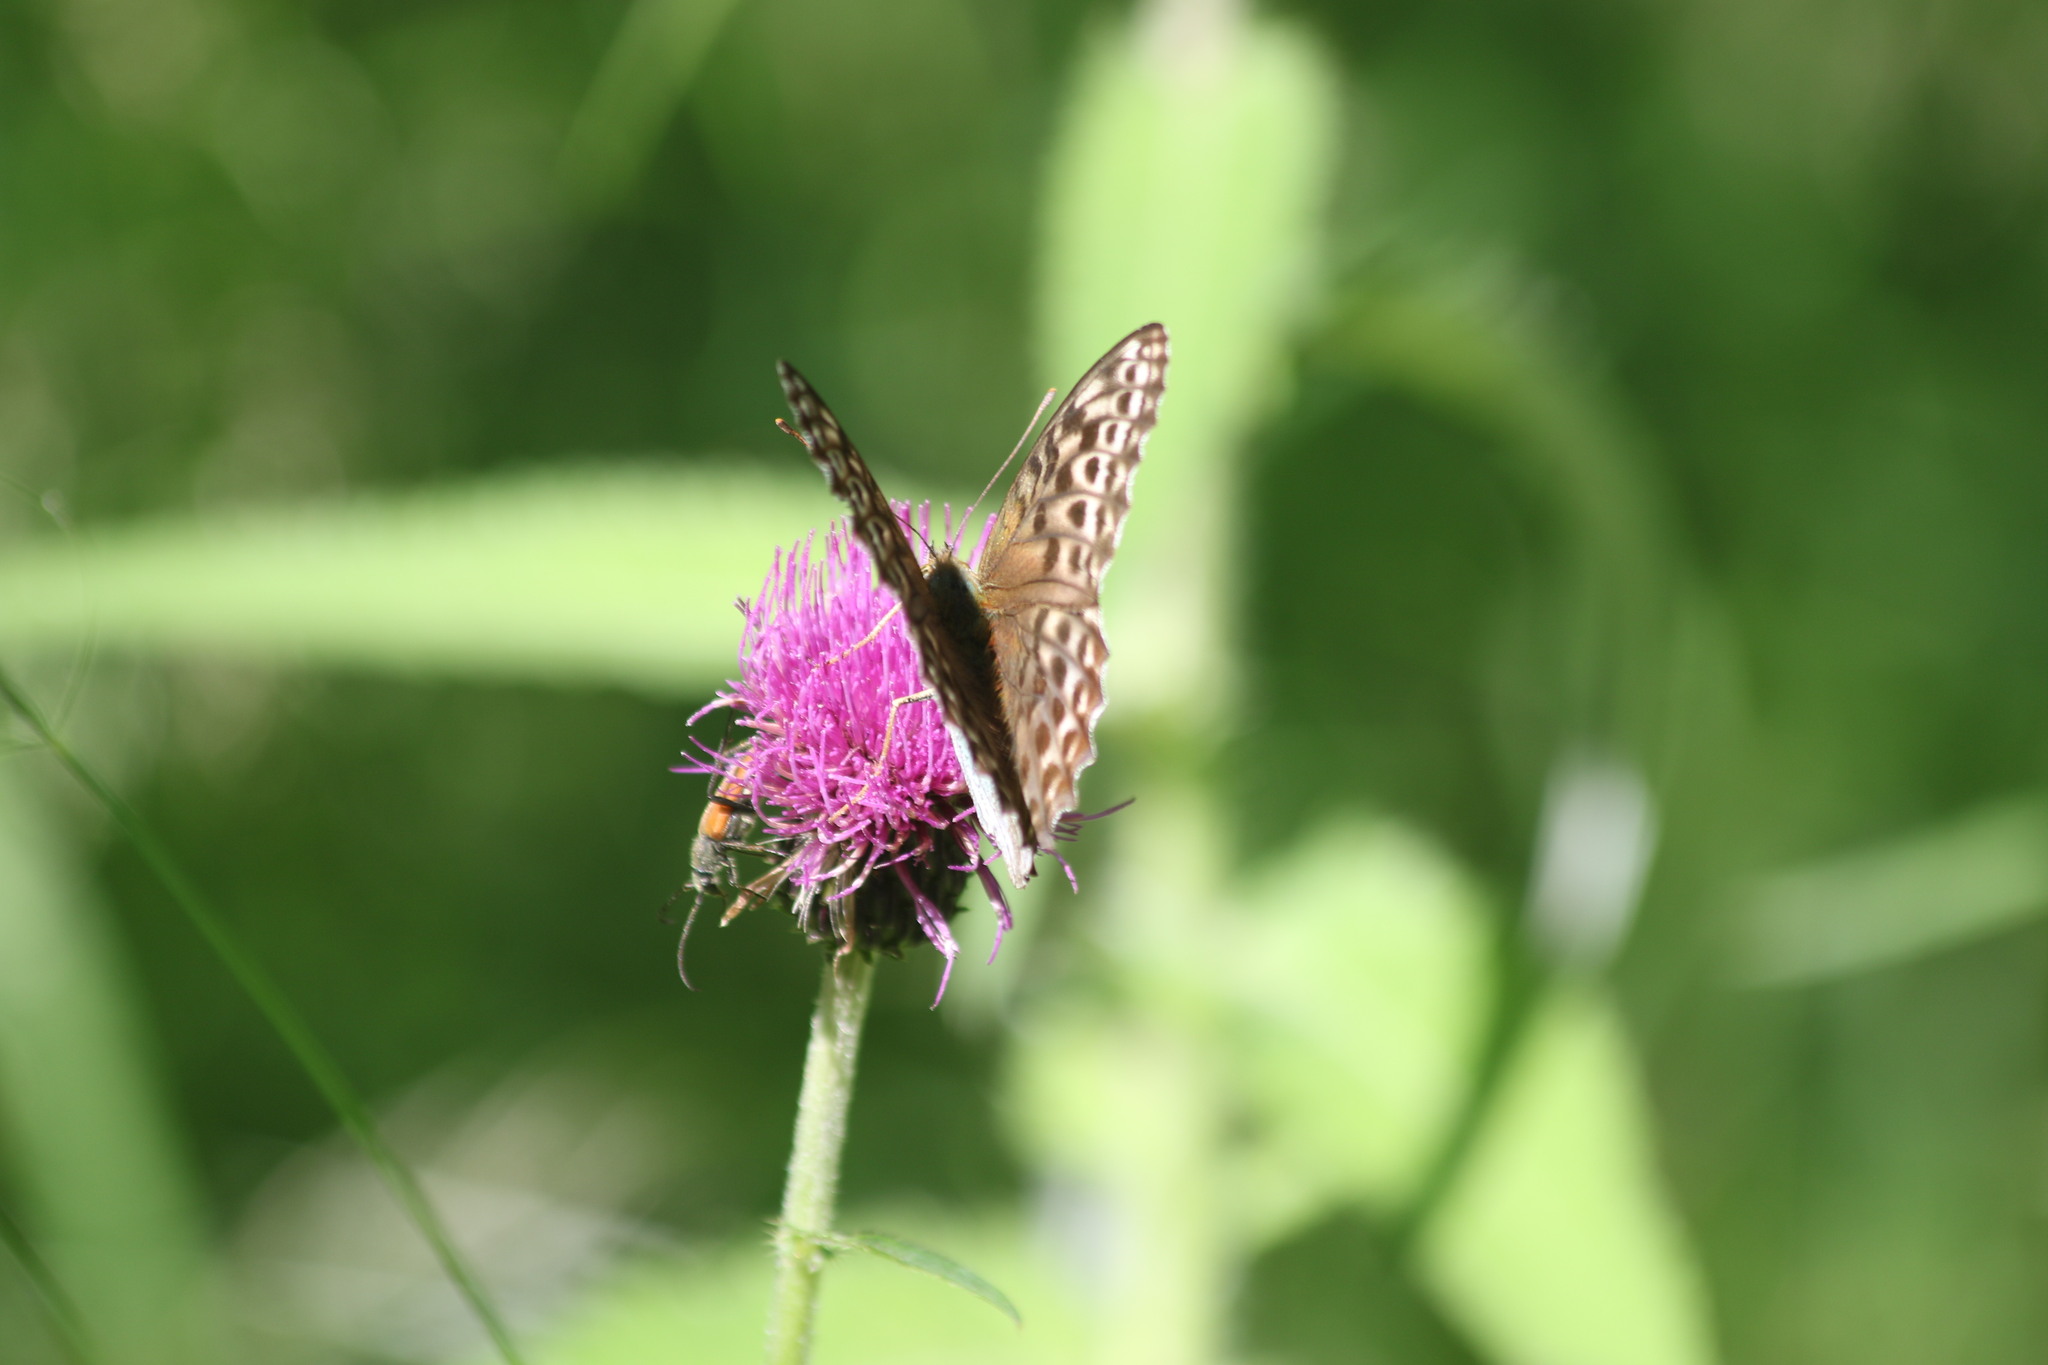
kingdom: Animalia
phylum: Arthropoda
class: Insecta
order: Lepidoptera
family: Nymphalidae
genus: Argynnis
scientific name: Argynnis paphia
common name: Silver-washed fritillary
